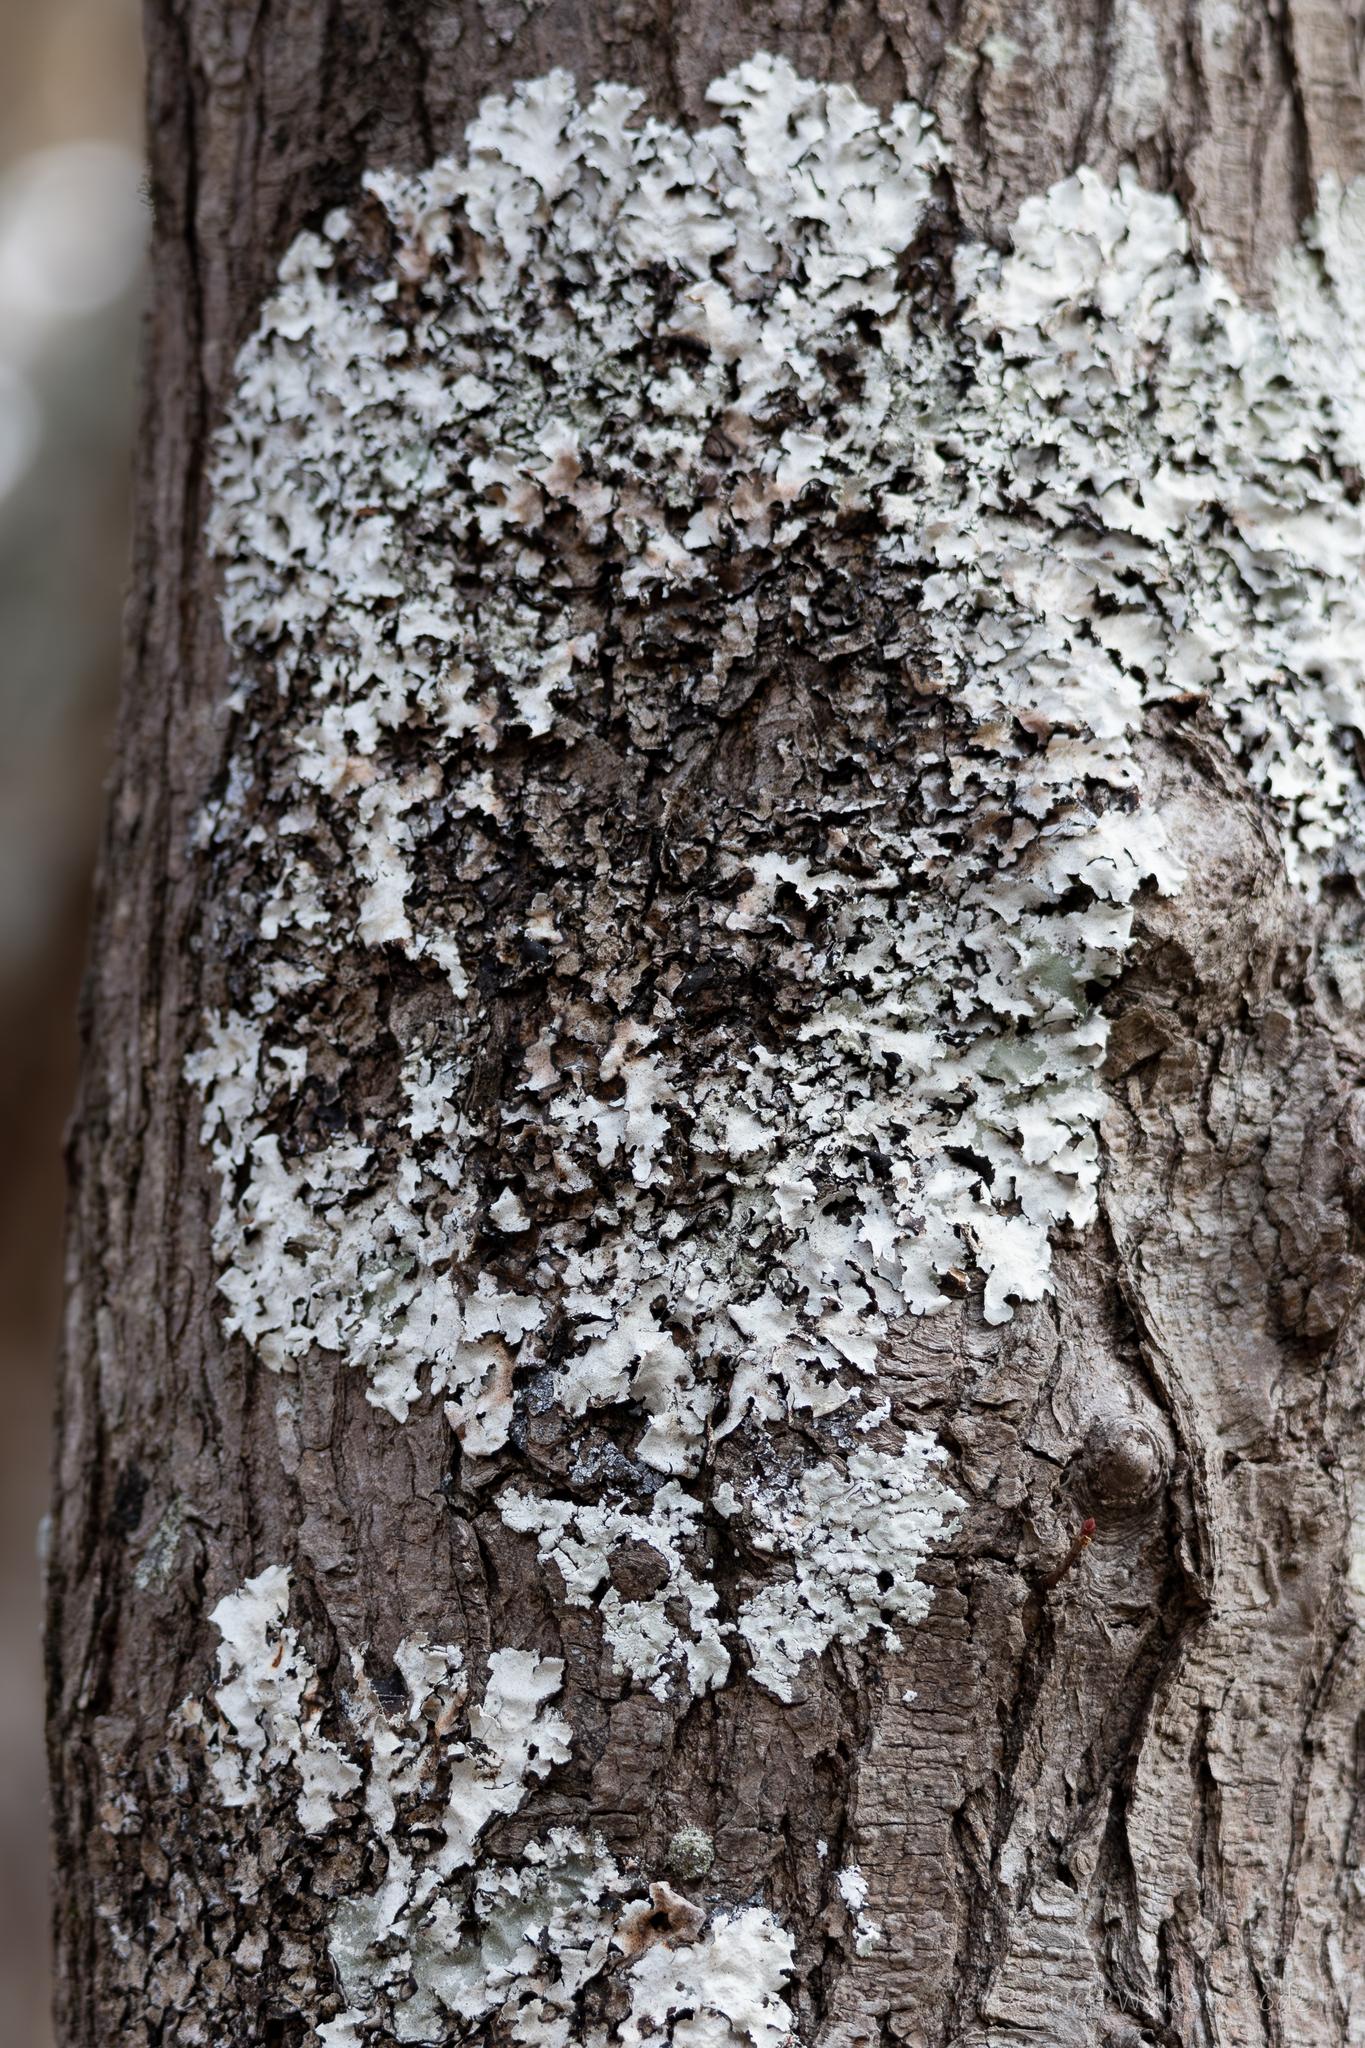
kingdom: Fungi
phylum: Ascomycota
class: Lecanoromycetes
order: Lecanorales
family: Parmeliaceae
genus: Parmotrema
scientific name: Parmotrema reticulatum
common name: Black sheet lichen
